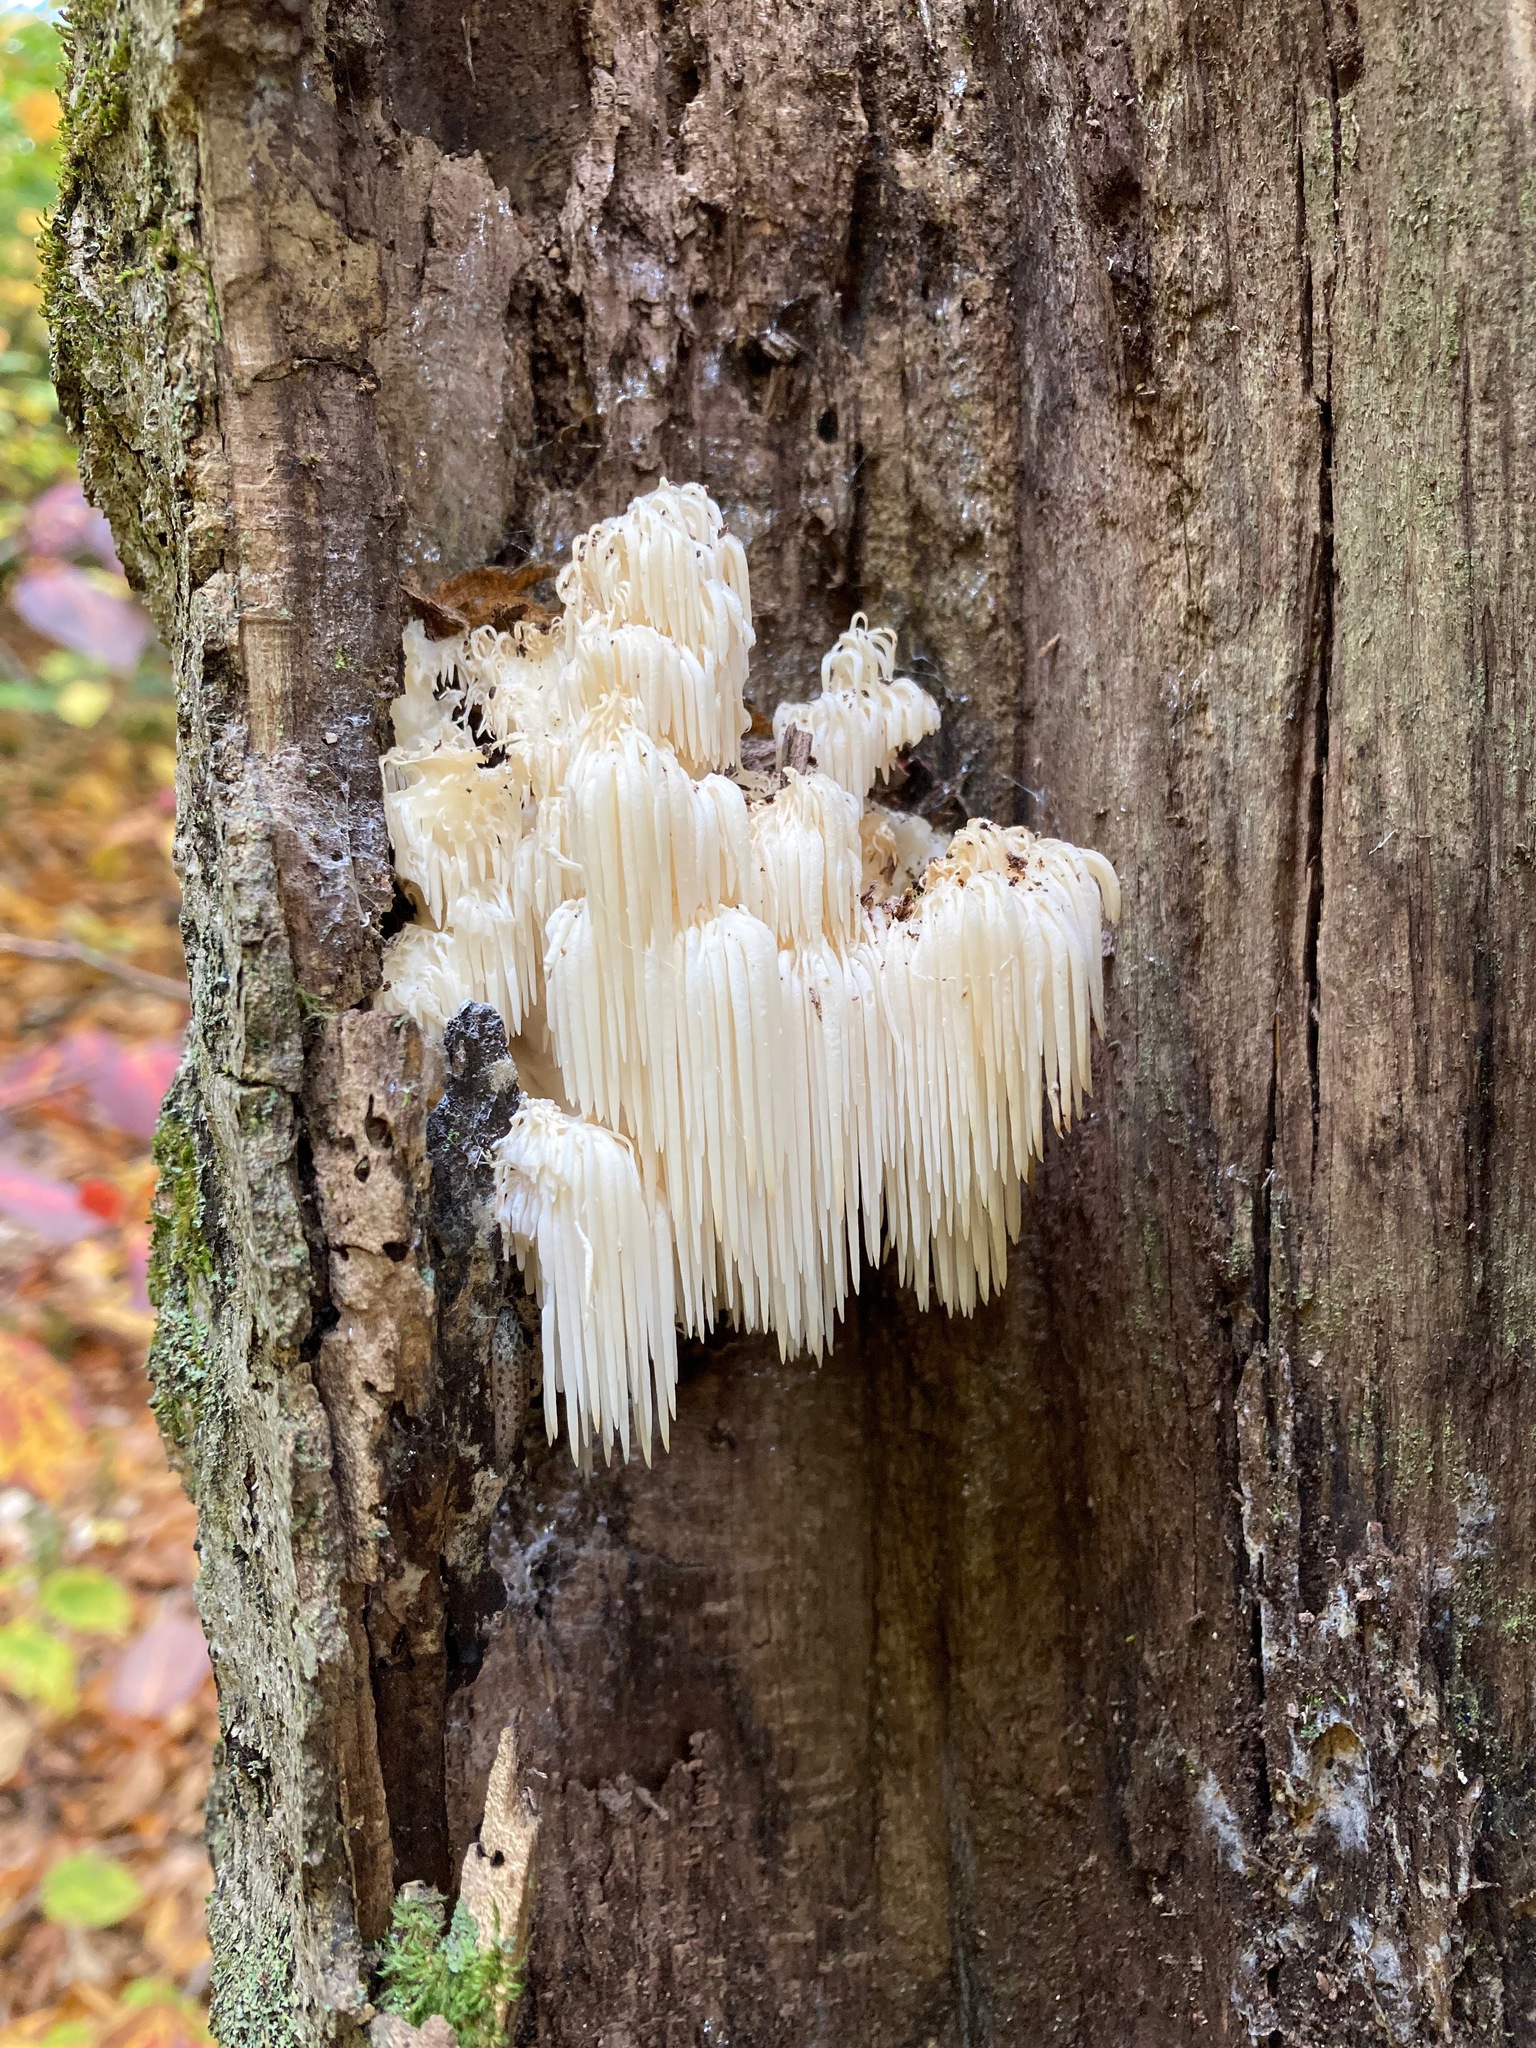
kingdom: Fungi
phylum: Basidiomycota
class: Agaricomycetes
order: Russulales
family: Hericiaceae
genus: Hericium
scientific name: Hericium americanum
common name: Bear's head tooth
